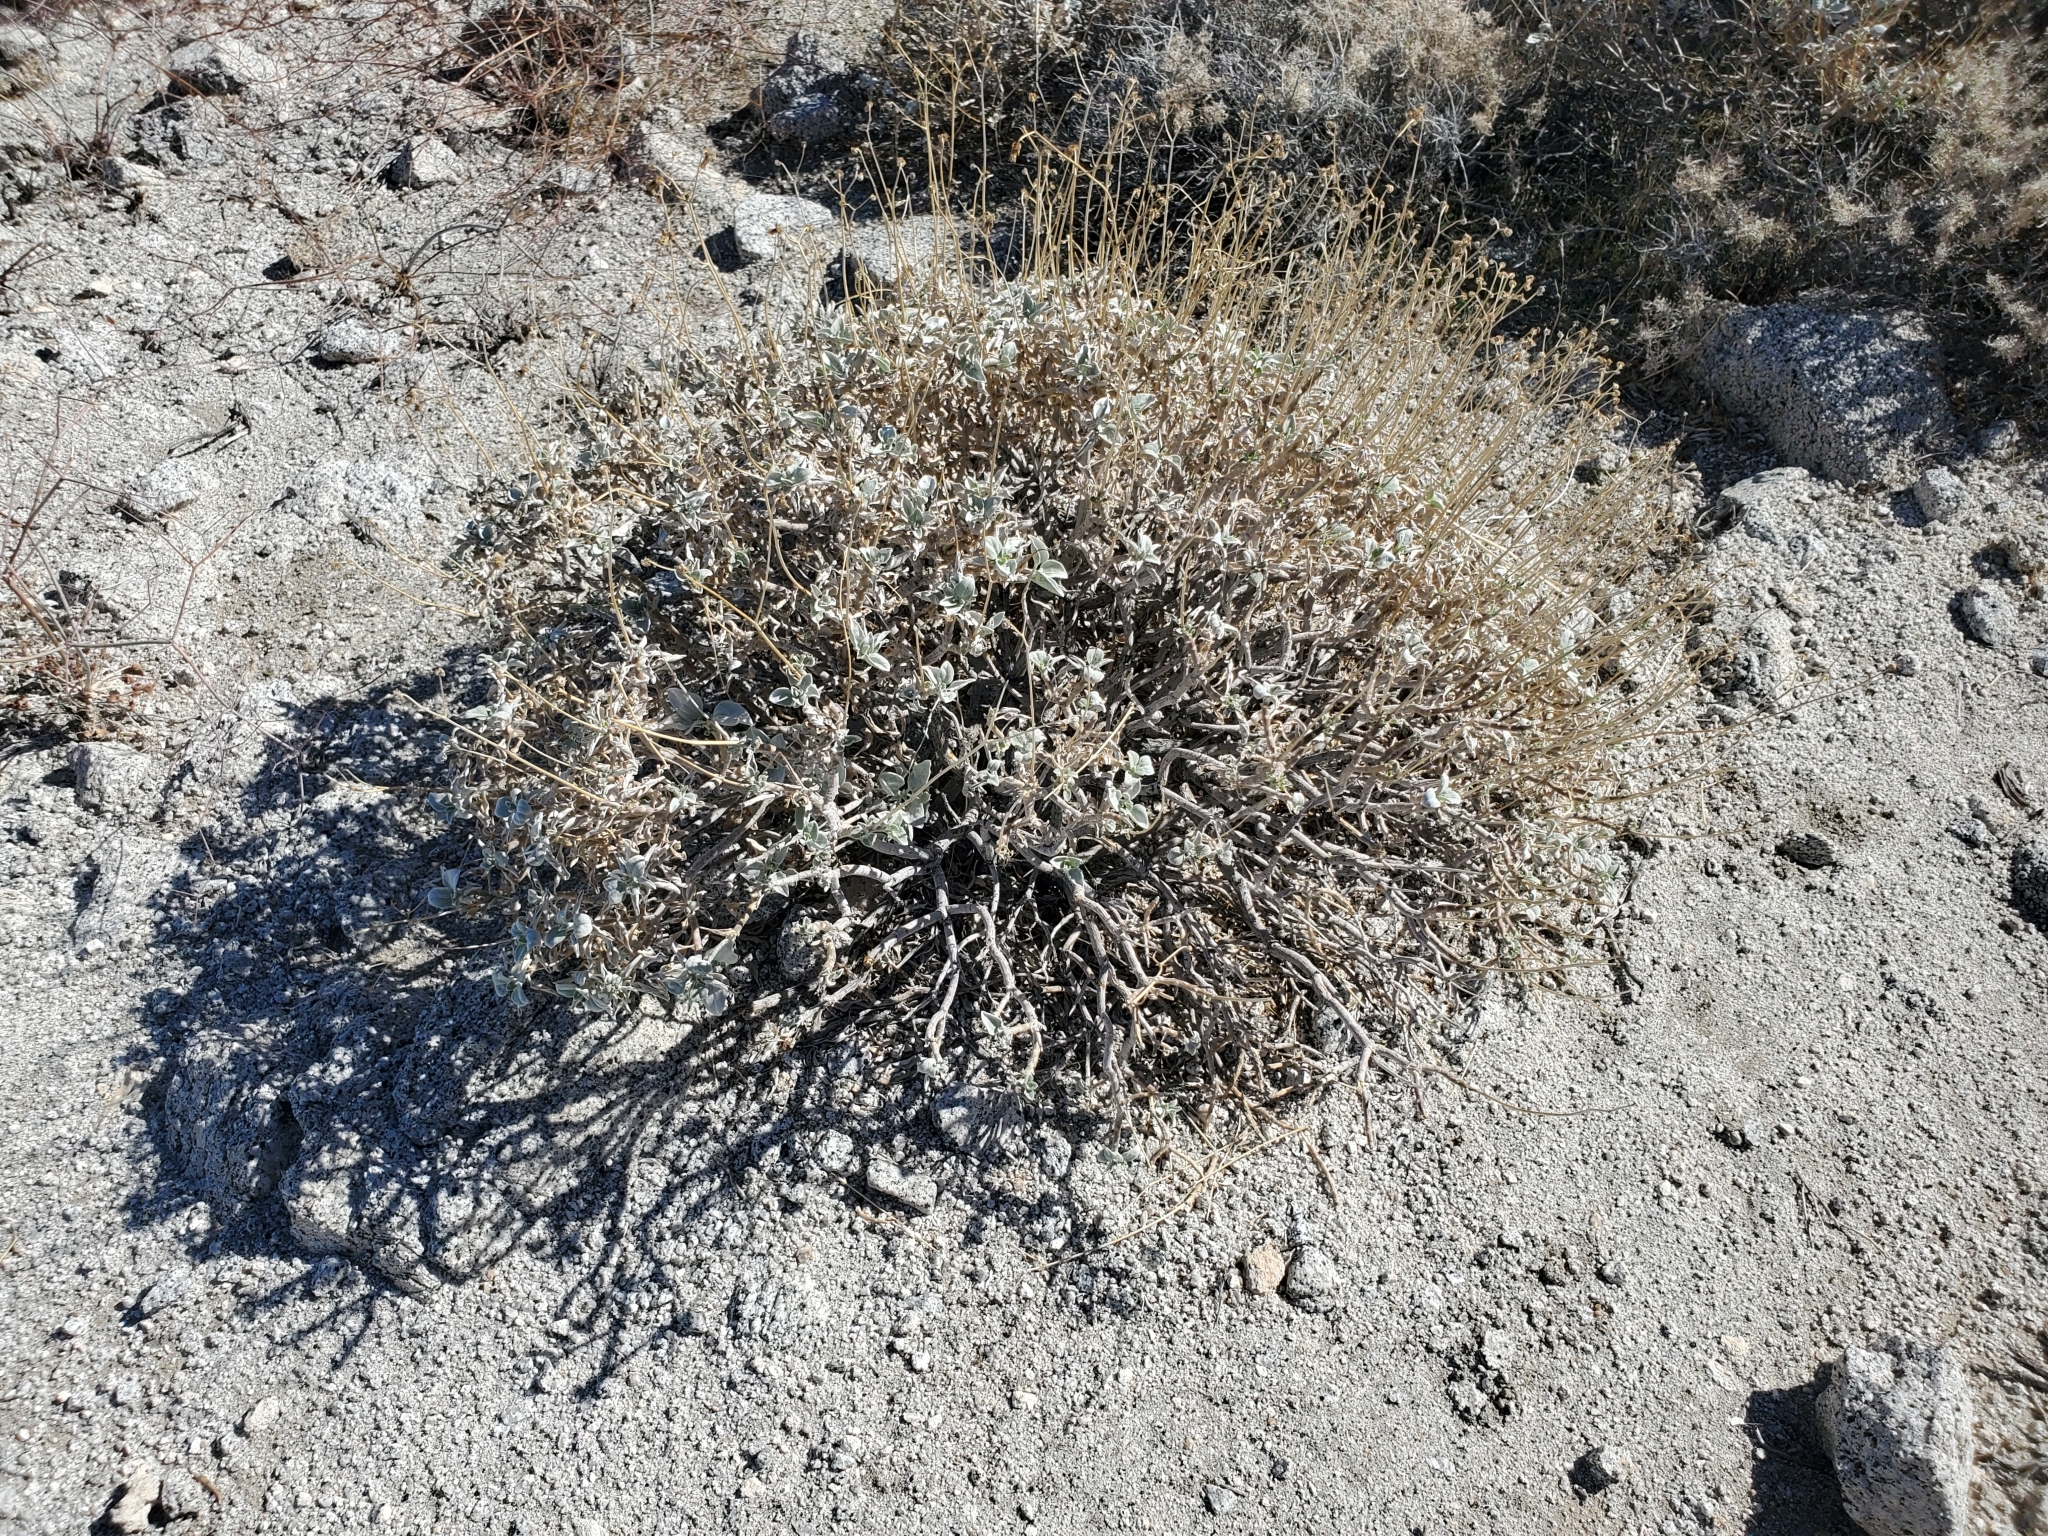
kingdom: Plantae
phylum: Tracheophyta
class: Magnoliopsida
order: Asterales
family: Asteraceae
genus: Encelia
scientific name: Encelia farinosa
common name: Brittlebush
